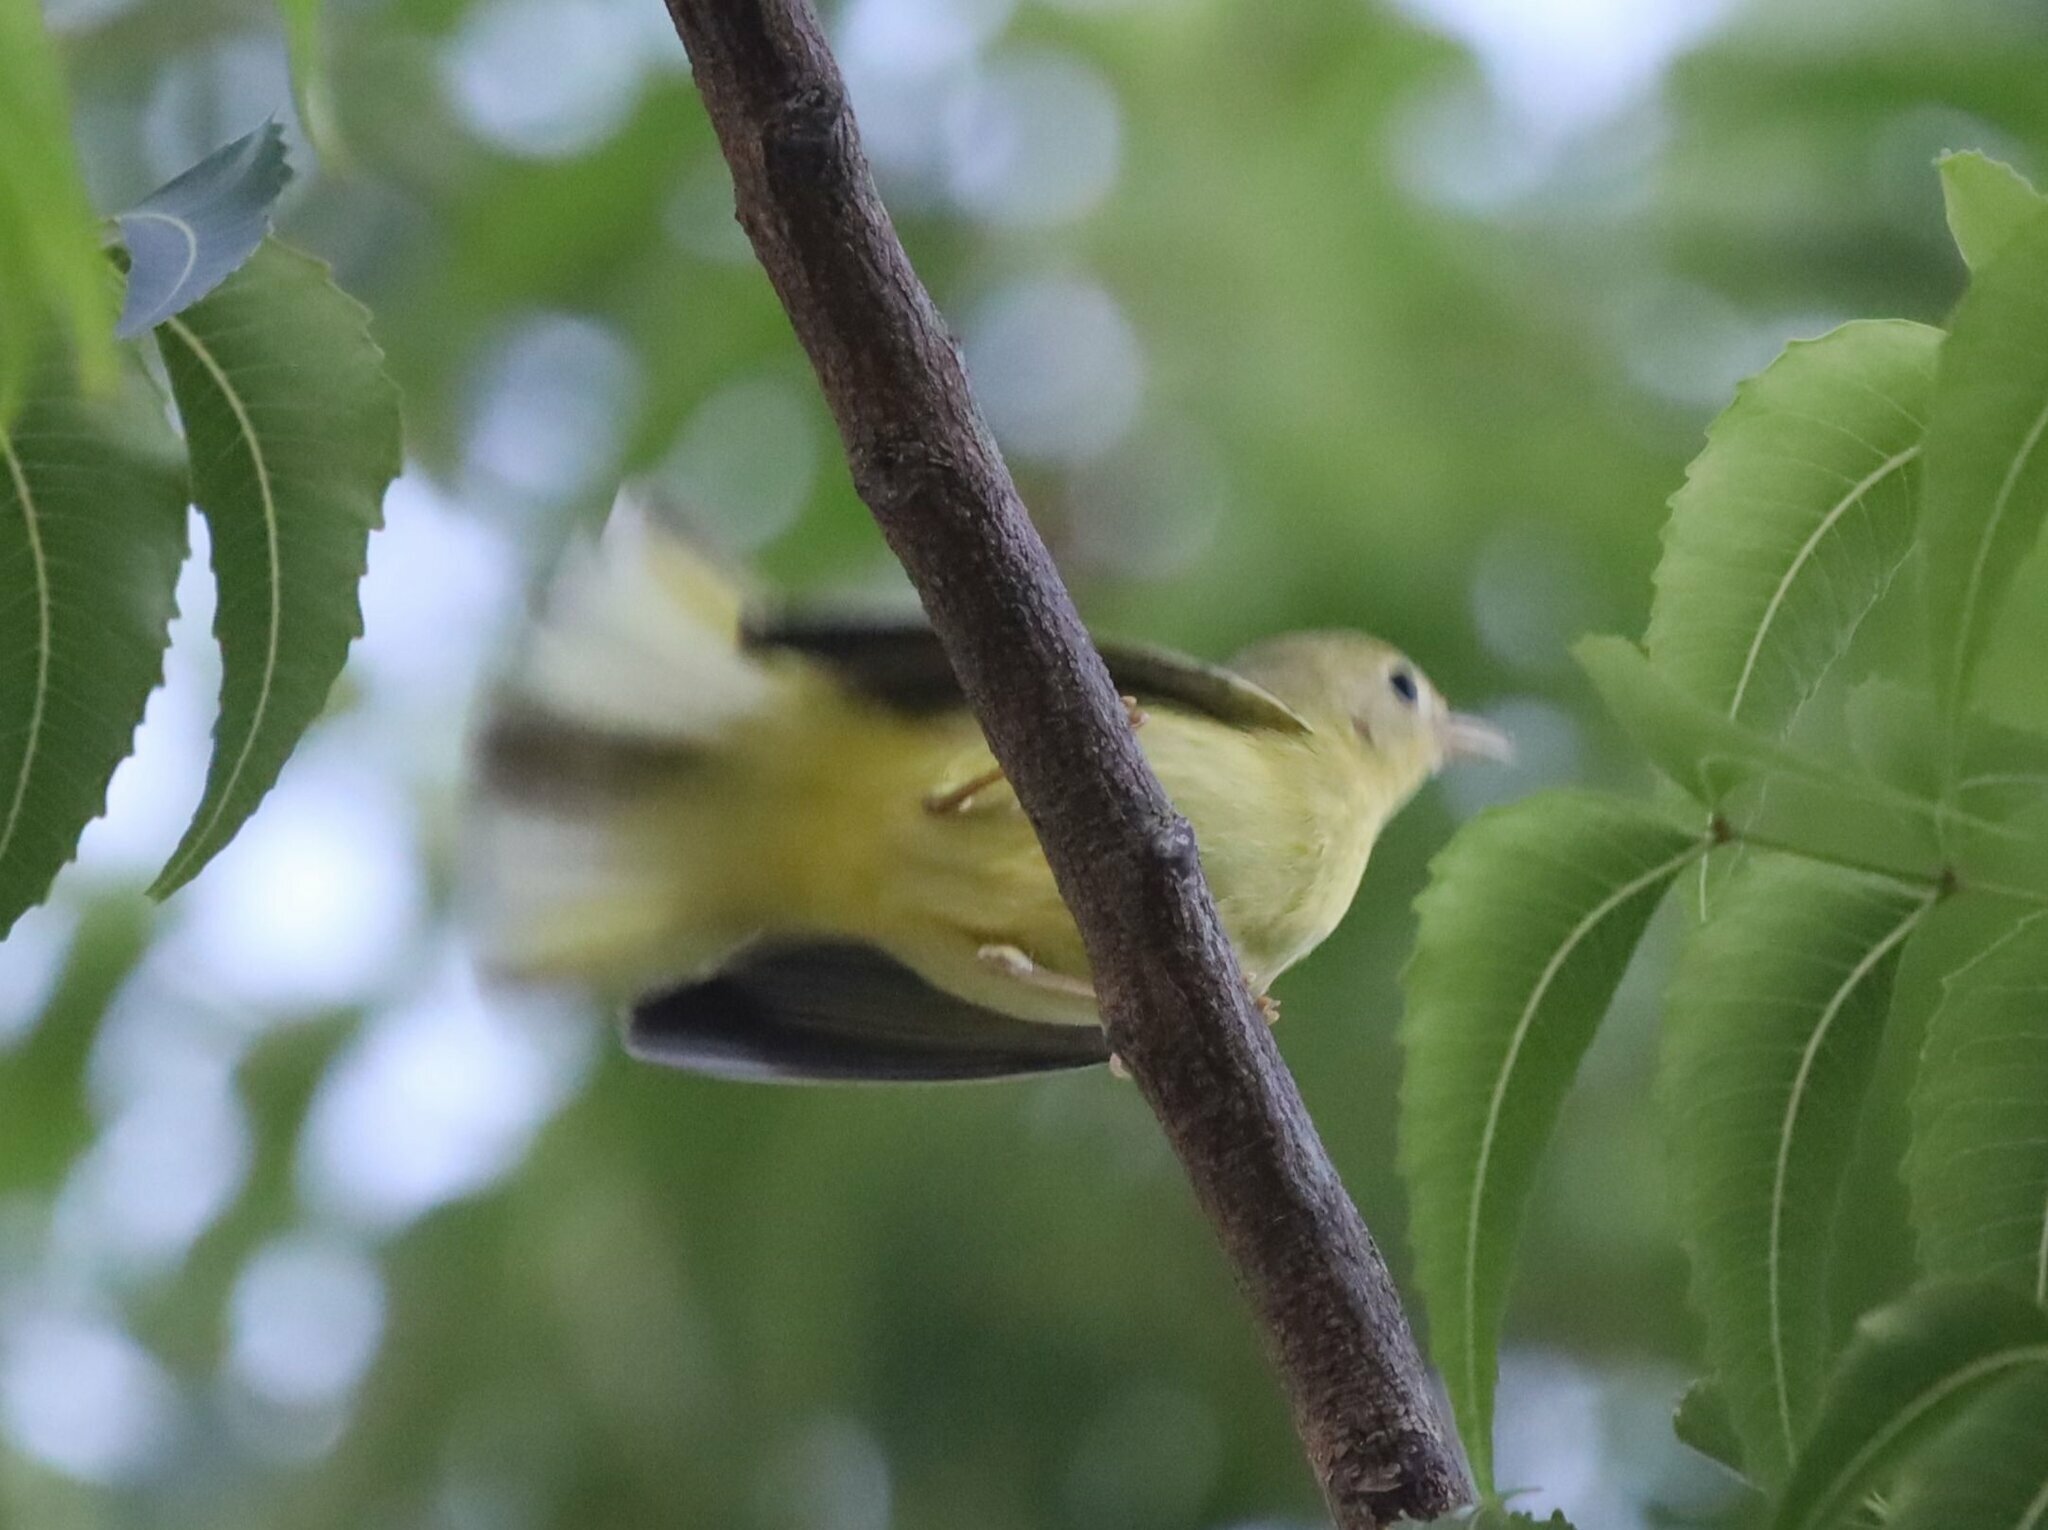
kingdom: Animalia
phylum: Chordata
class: Aves
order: Passeriformes
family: Parulidae
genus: Setophaga
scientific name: Setophaga petechia
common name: Yellow warbler
